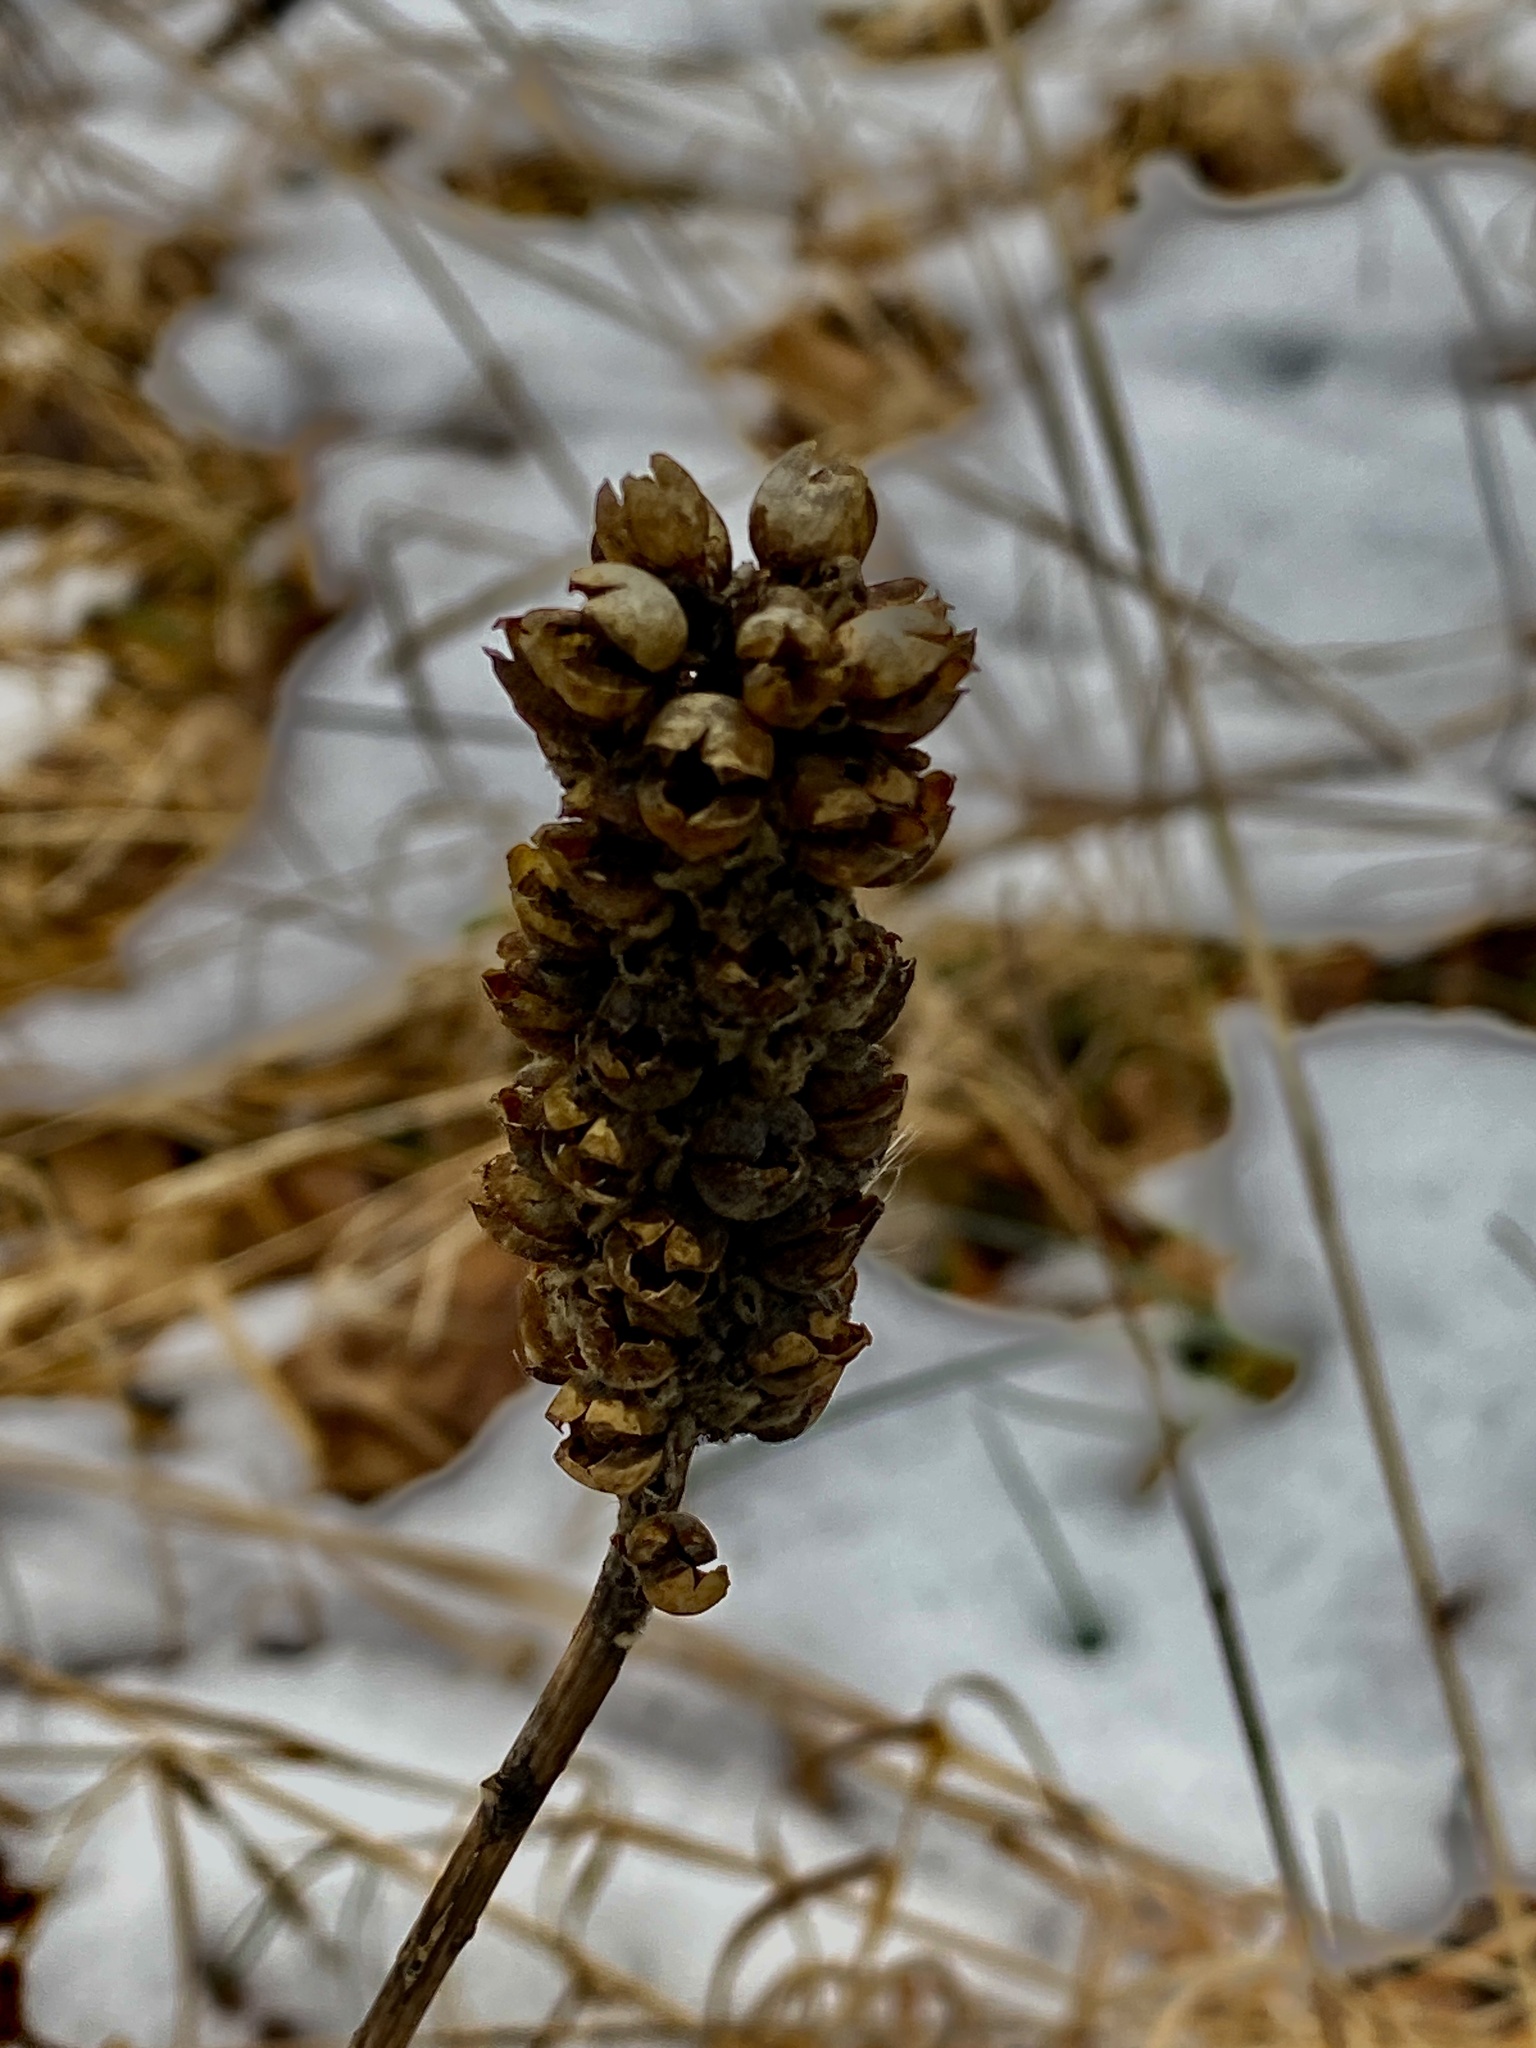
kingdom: Plantae
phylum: Tracheophyta
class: Magnoliopsida
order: Lamiales
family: Scrophulariaceae
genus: Verbascum
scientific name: Verbascum thapsus
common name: Common mullein
